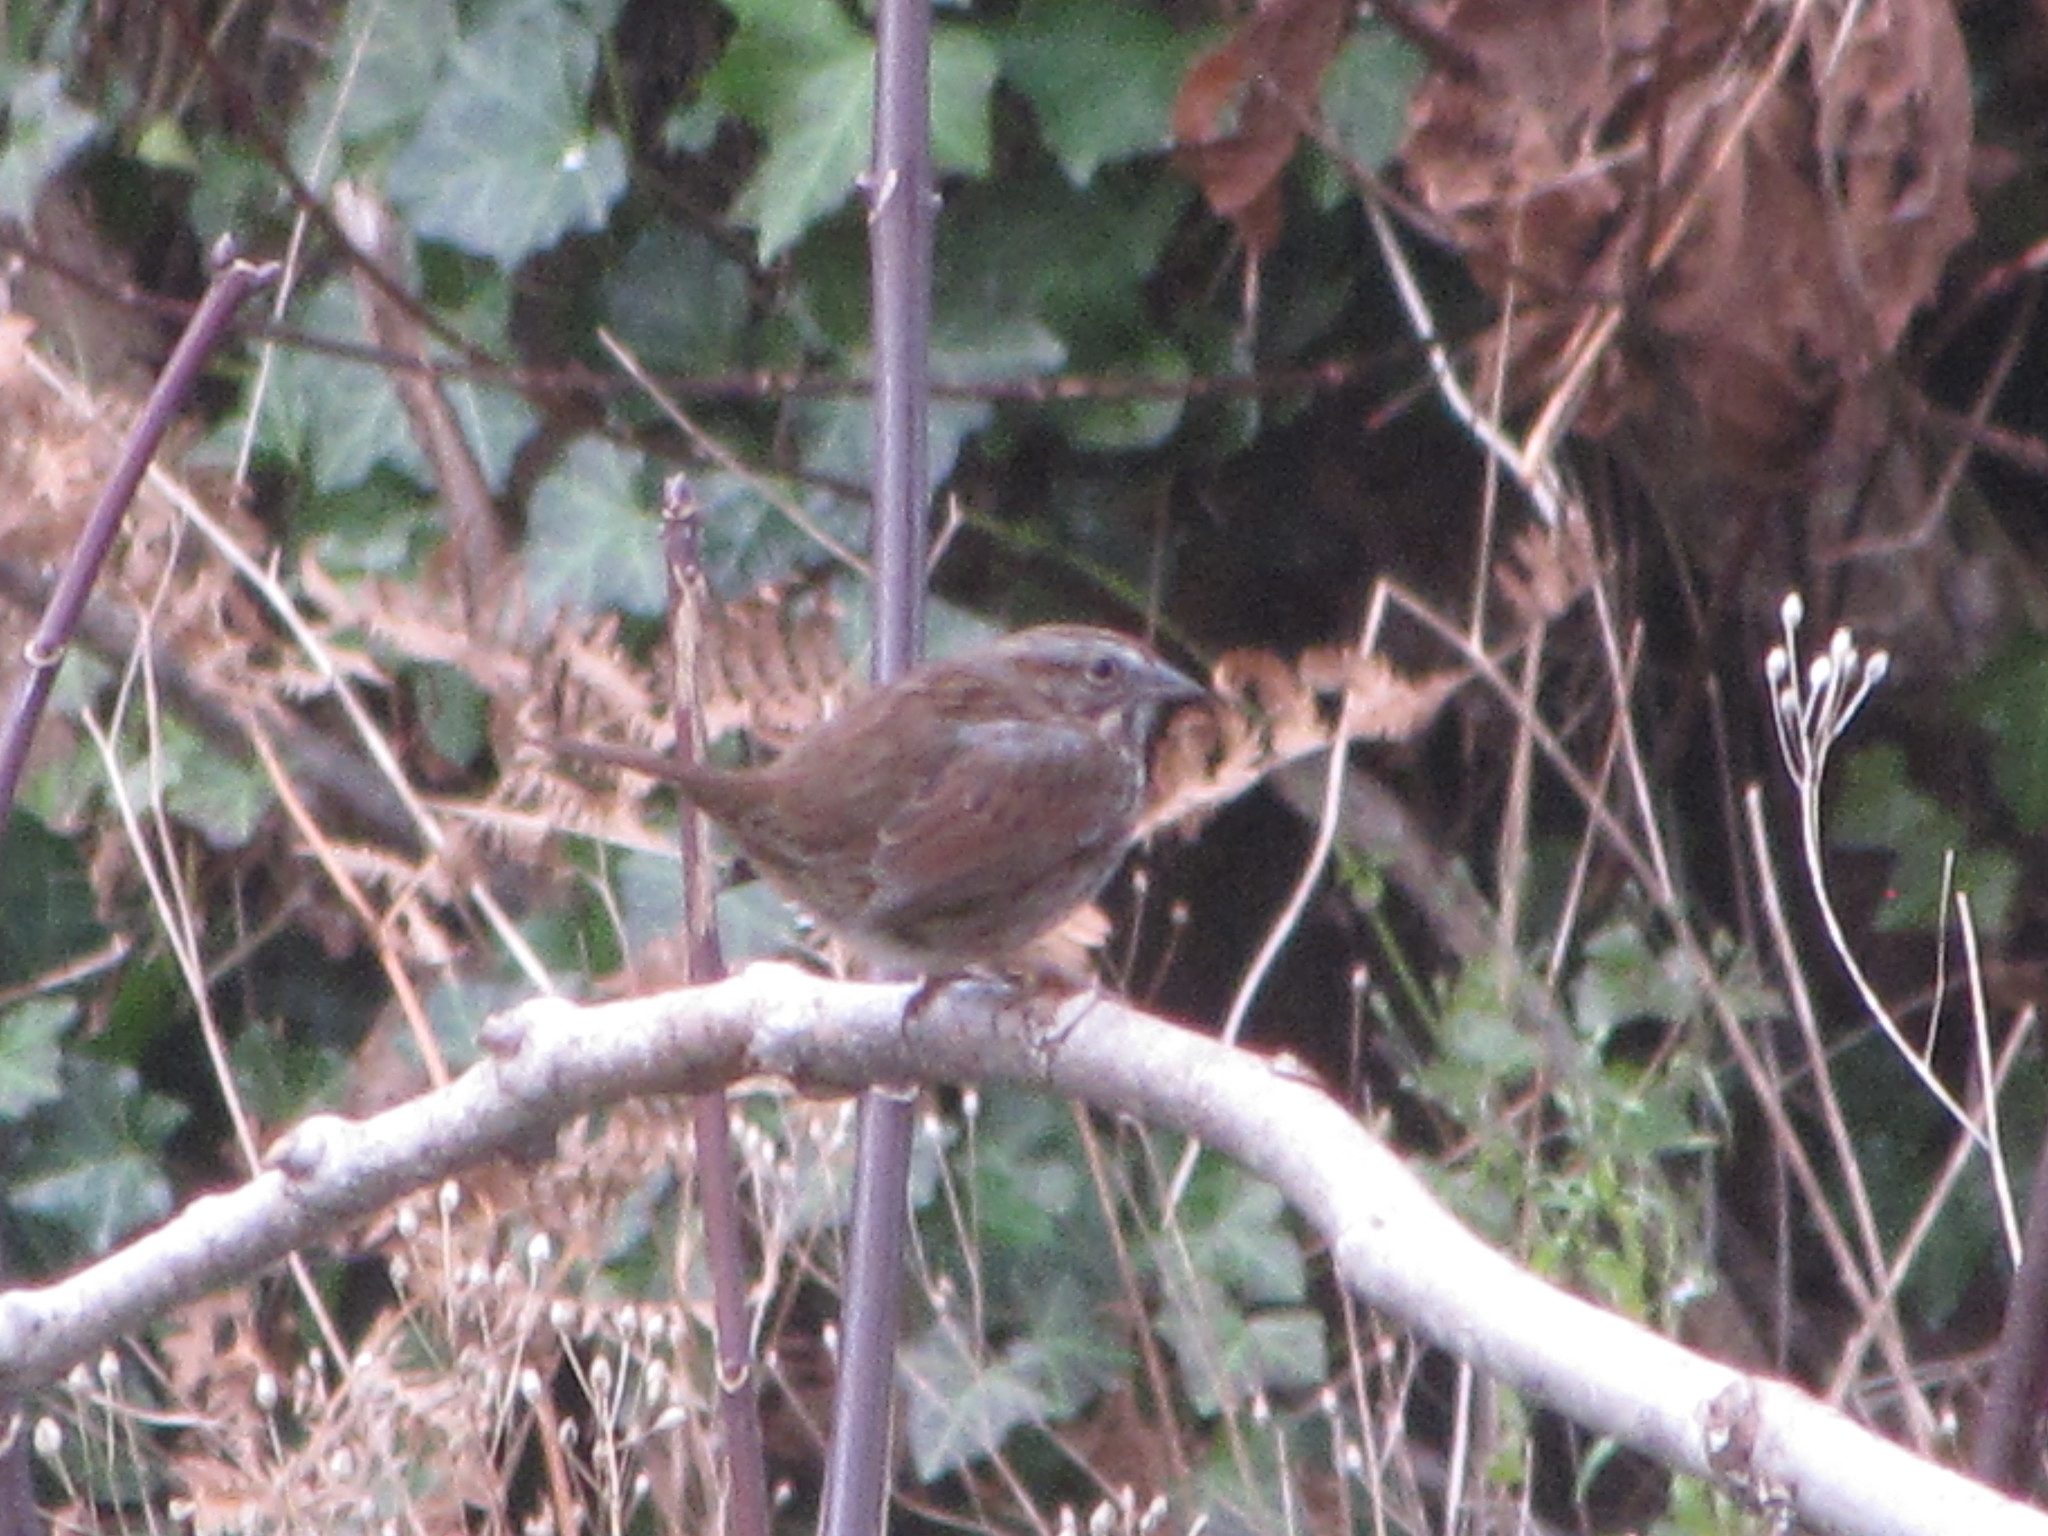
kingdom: Animalia
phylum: Chordata
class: Aves
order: Passeriformes
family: Passerellidae
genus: Melospiza
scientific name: Melospiza melodia
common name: Song sparrow
